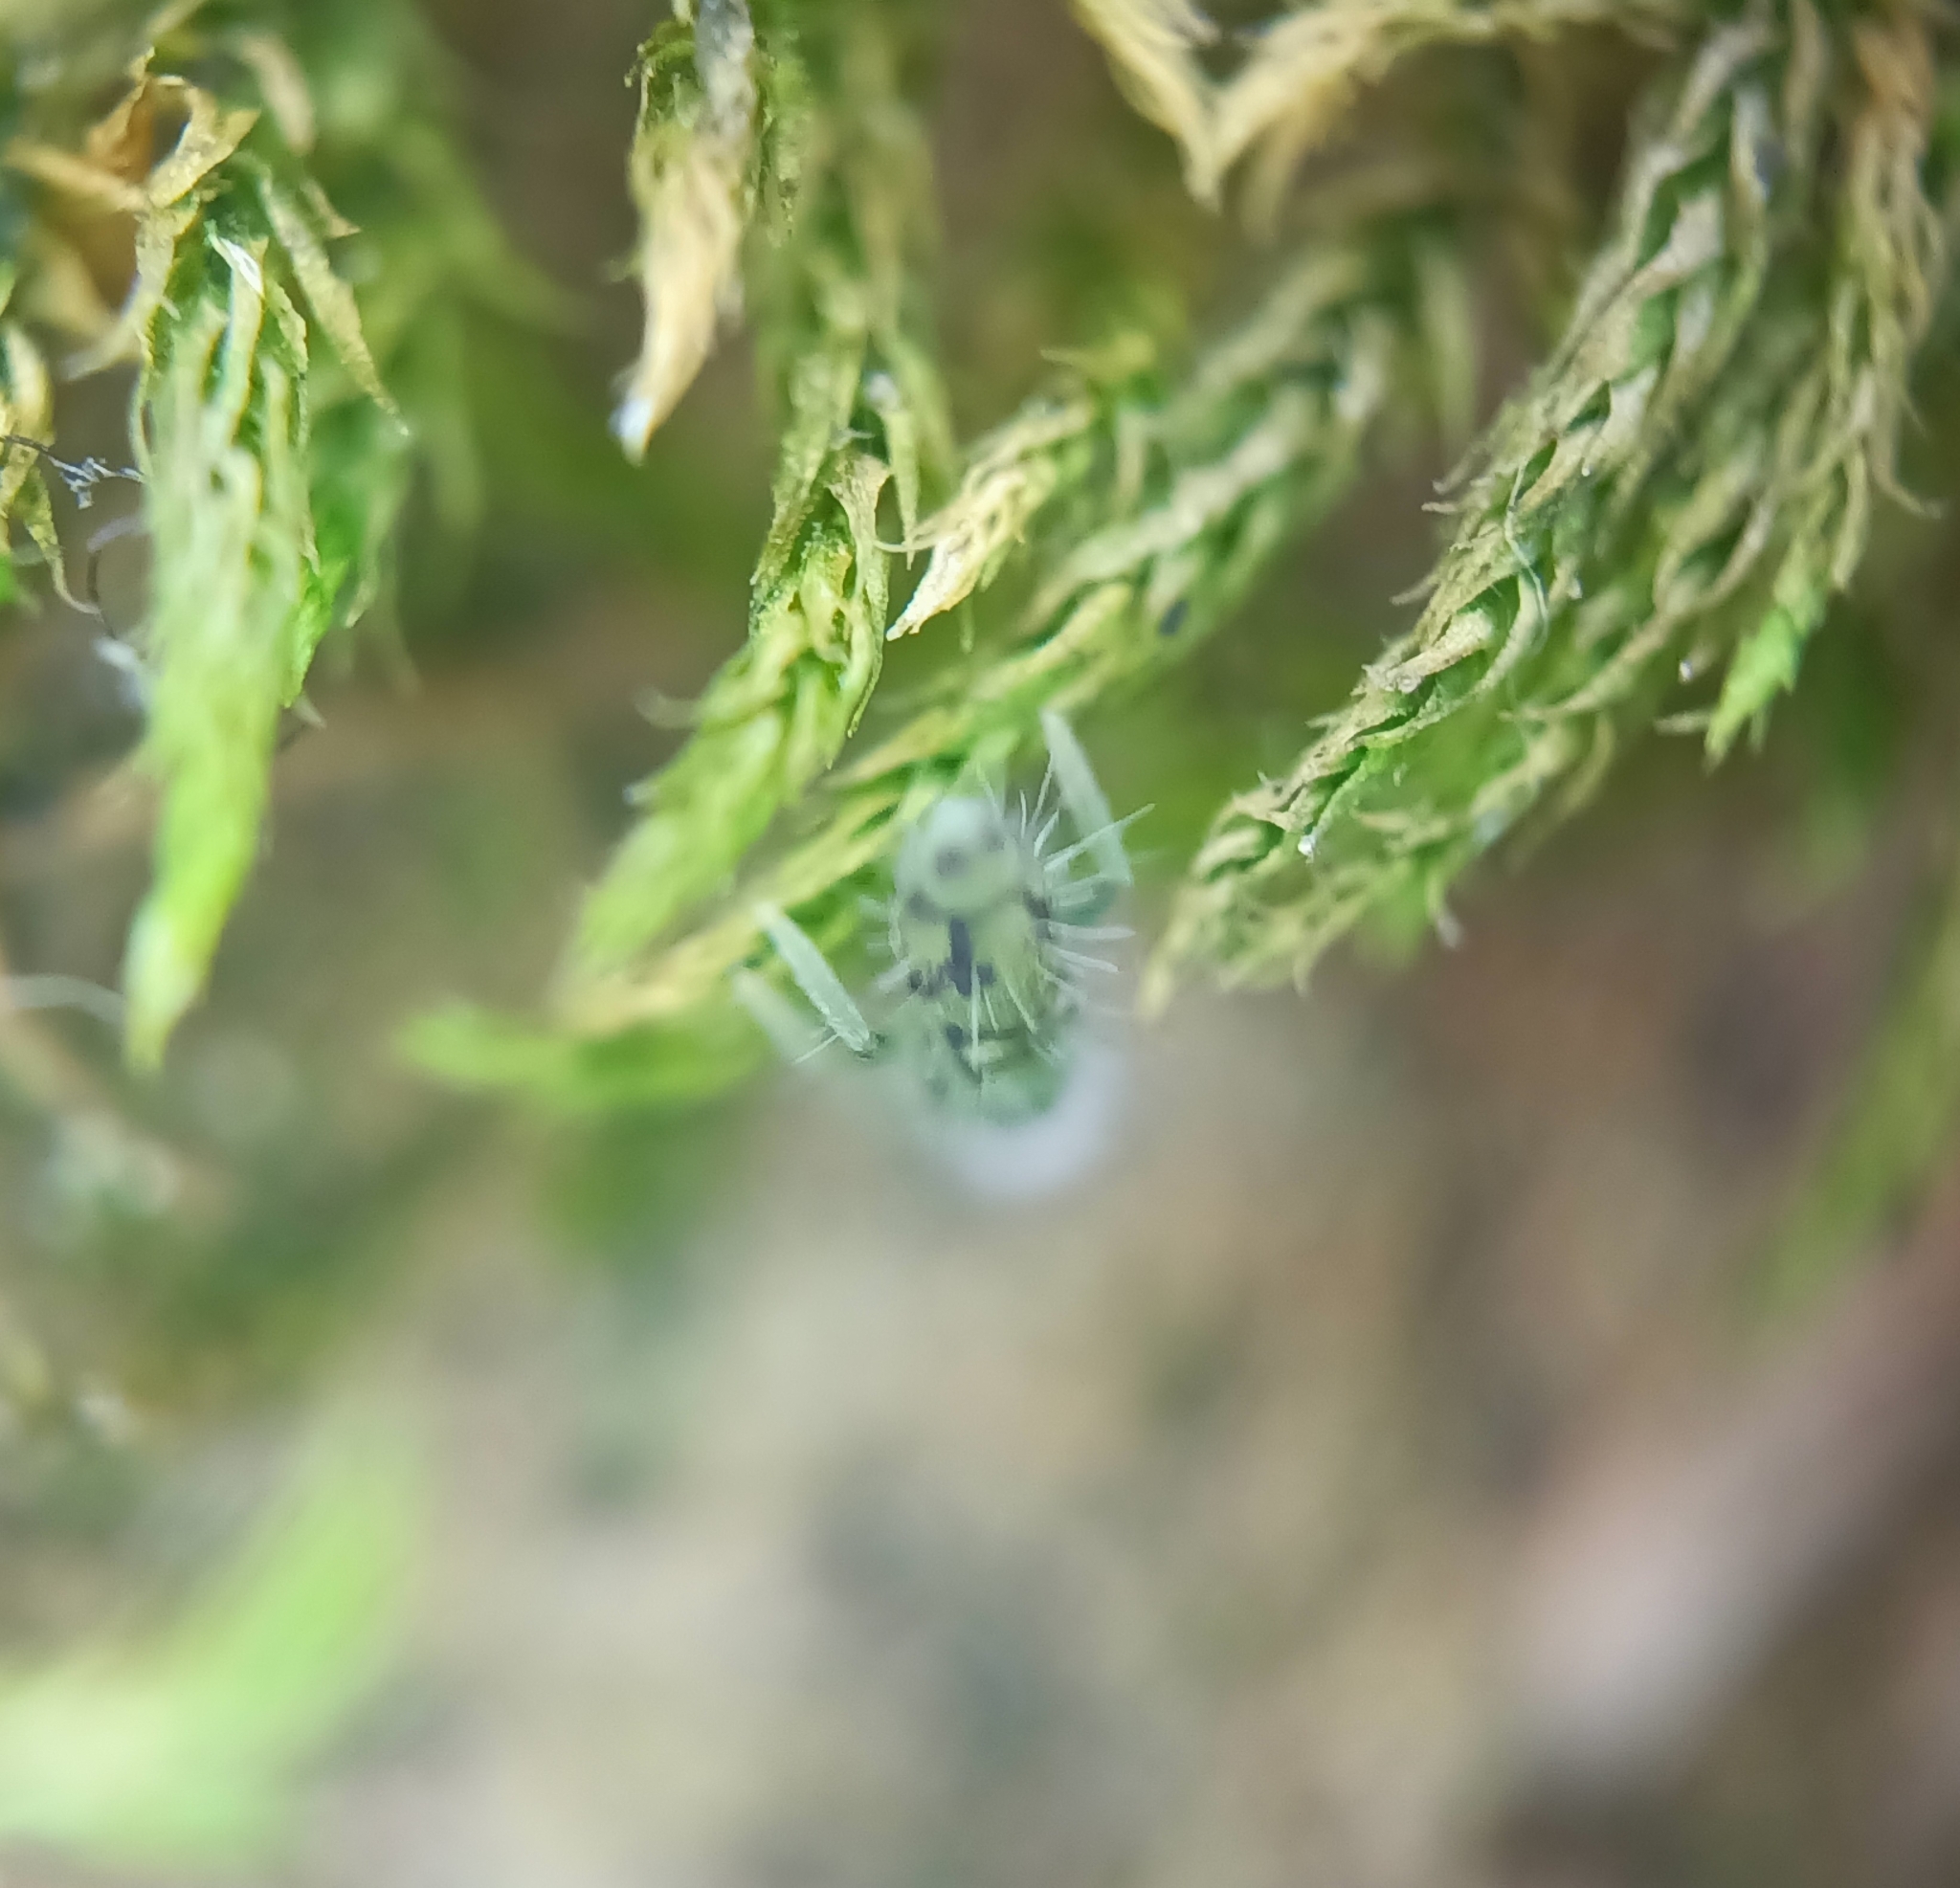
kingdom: Animalia
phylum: Arthropoda
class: Collembola
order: Entomobryomorpha
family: Entomobryidae
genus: Entomobrya
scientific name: Entomobrya nivalis
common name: Cosmopolitan springtail
